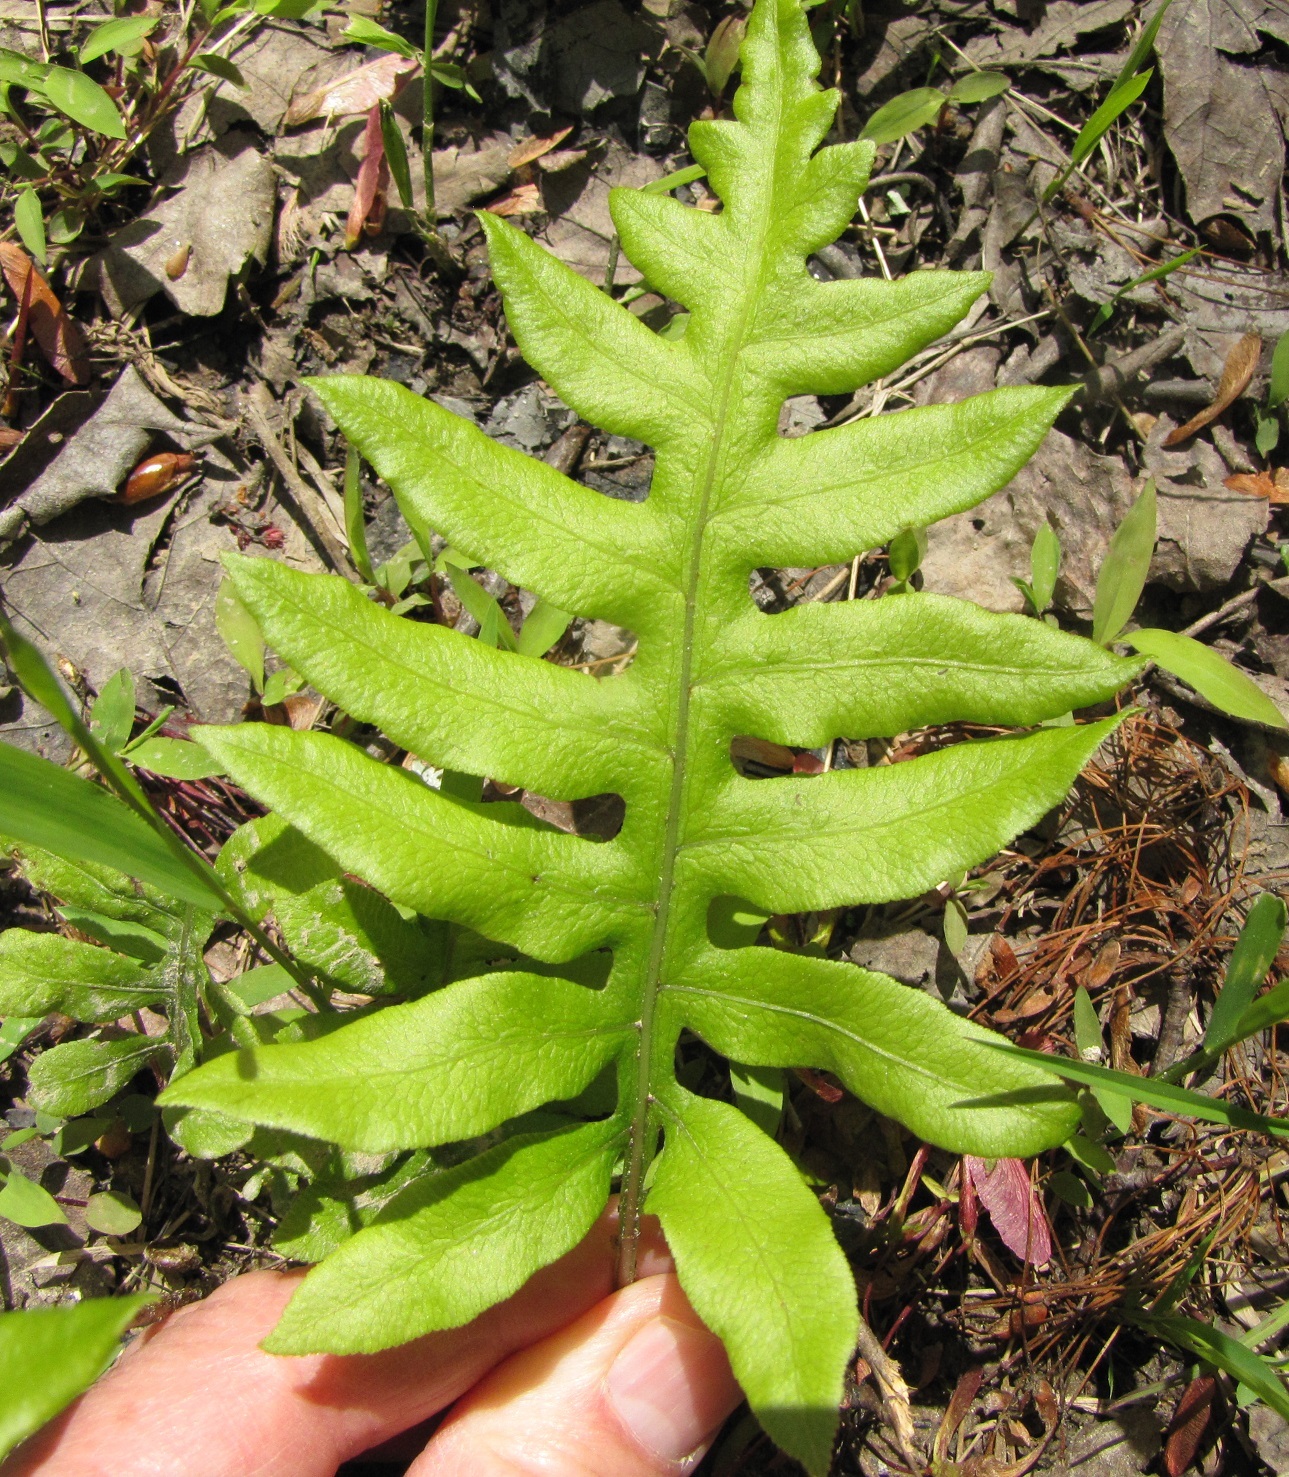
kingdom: Plantae
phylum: Tracheophyta
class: Polypodiopsida
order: Polypodiales
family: Blechnaceae
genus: Lorinseria
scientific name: Lorinseria areolata
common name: Dwarf chain fern
